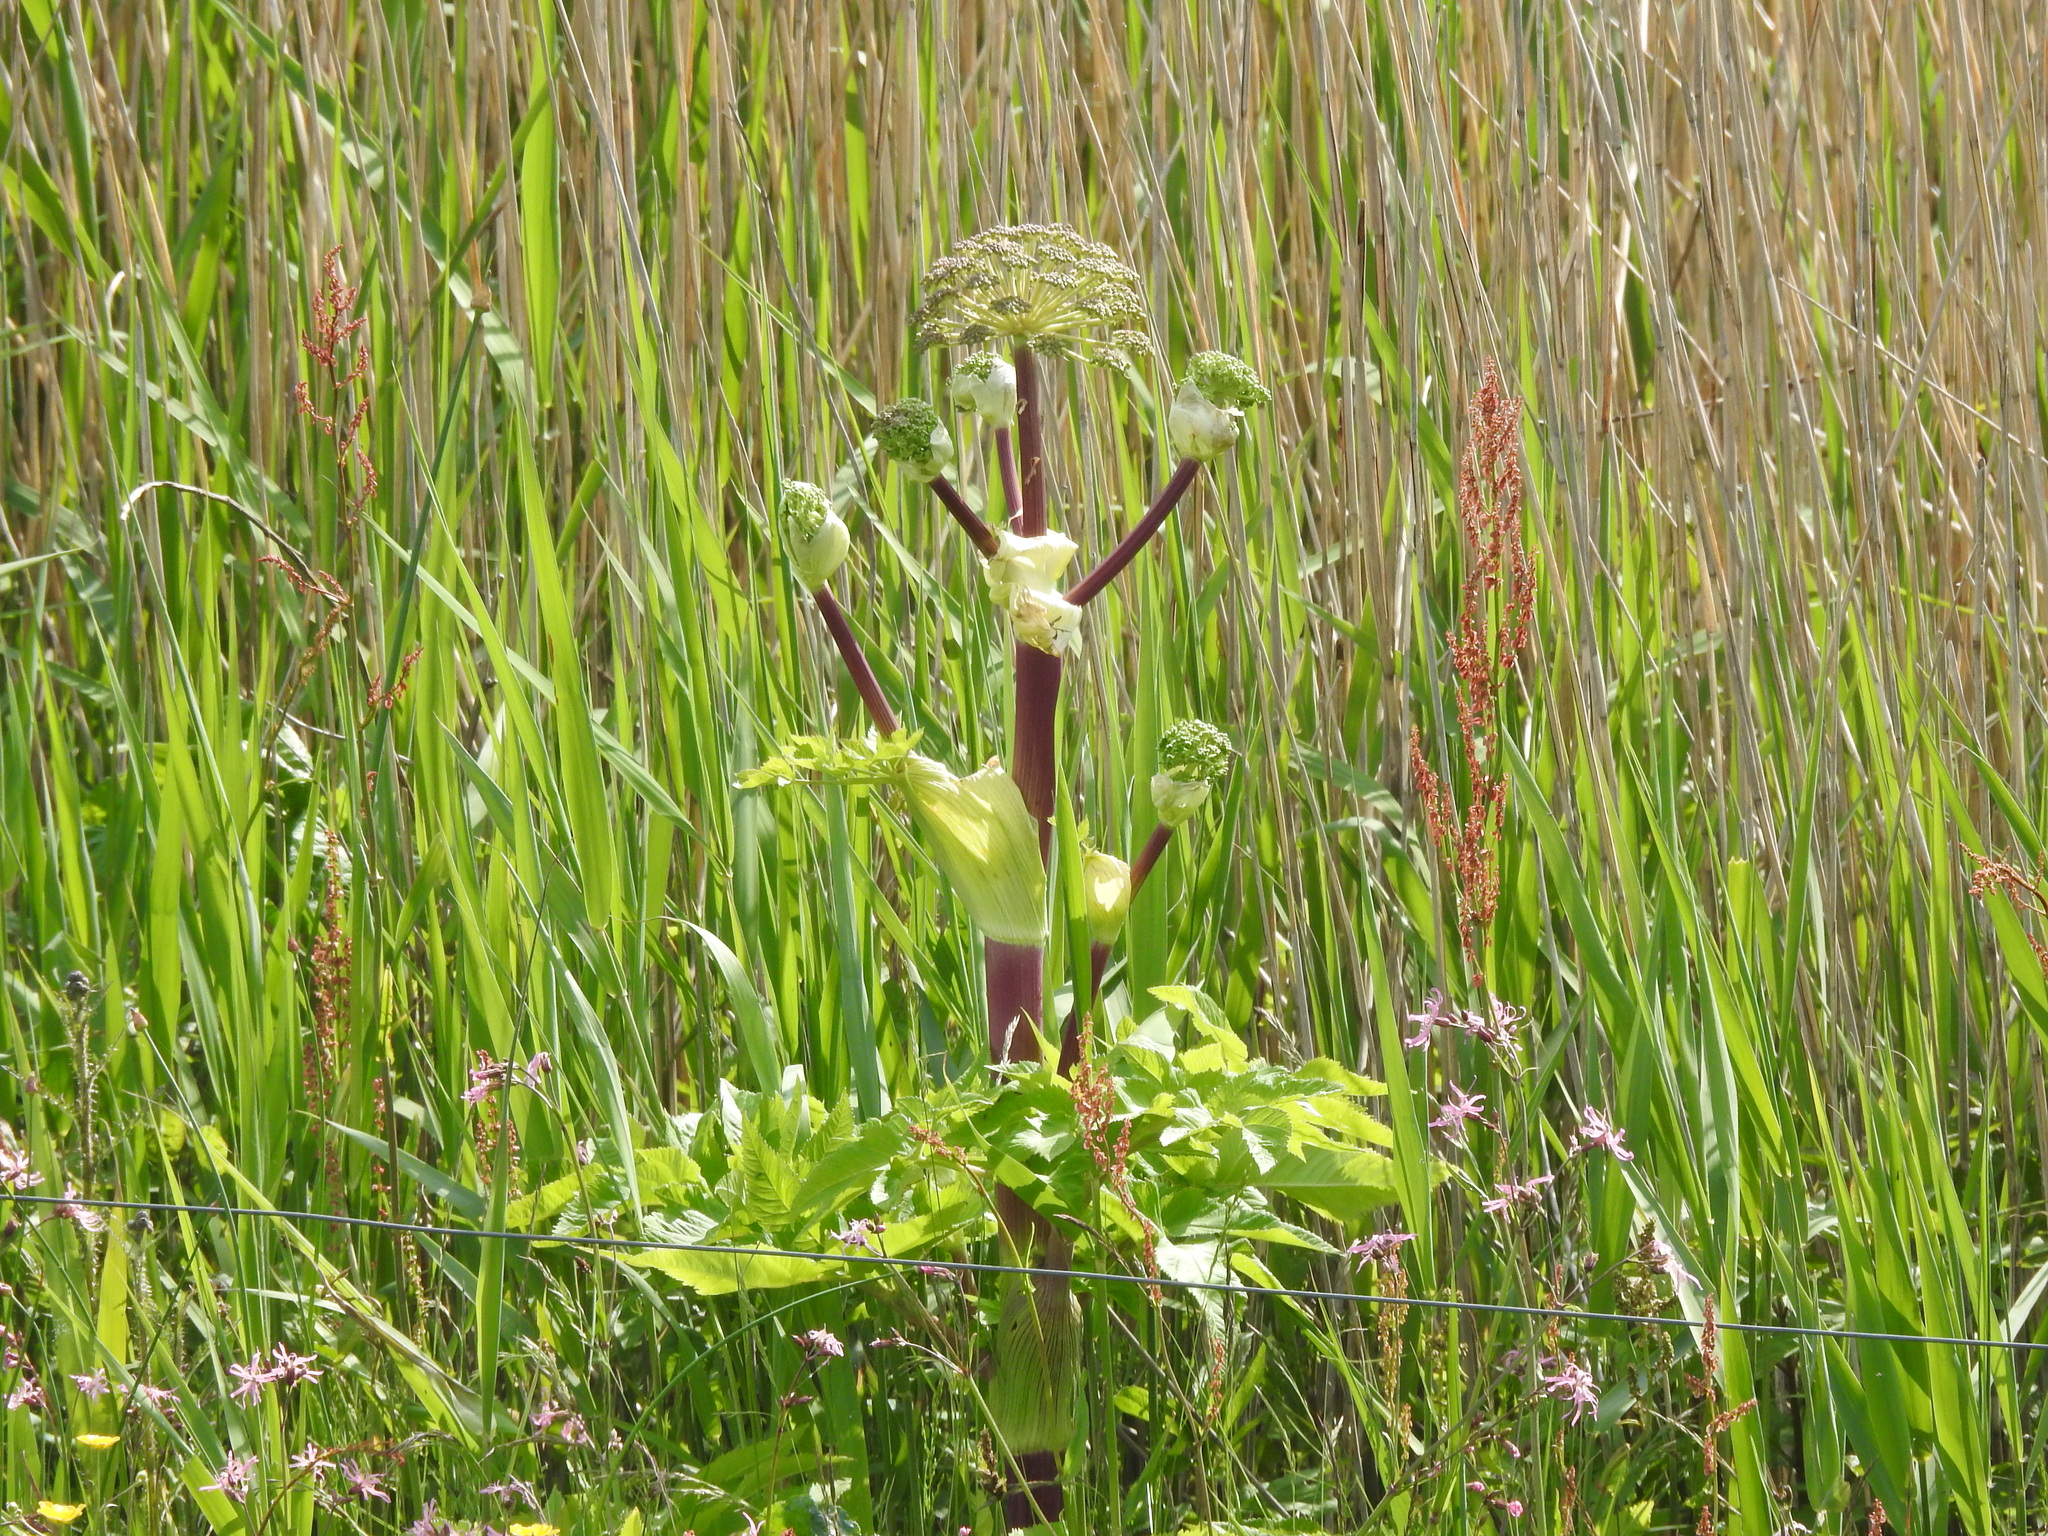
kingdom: Plantae
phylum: Tracheophyta
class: Magnoliopsida
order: Apiales
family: Apiaceae
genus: Angelica
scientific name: Angelica archangelica
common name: Garden angelica
